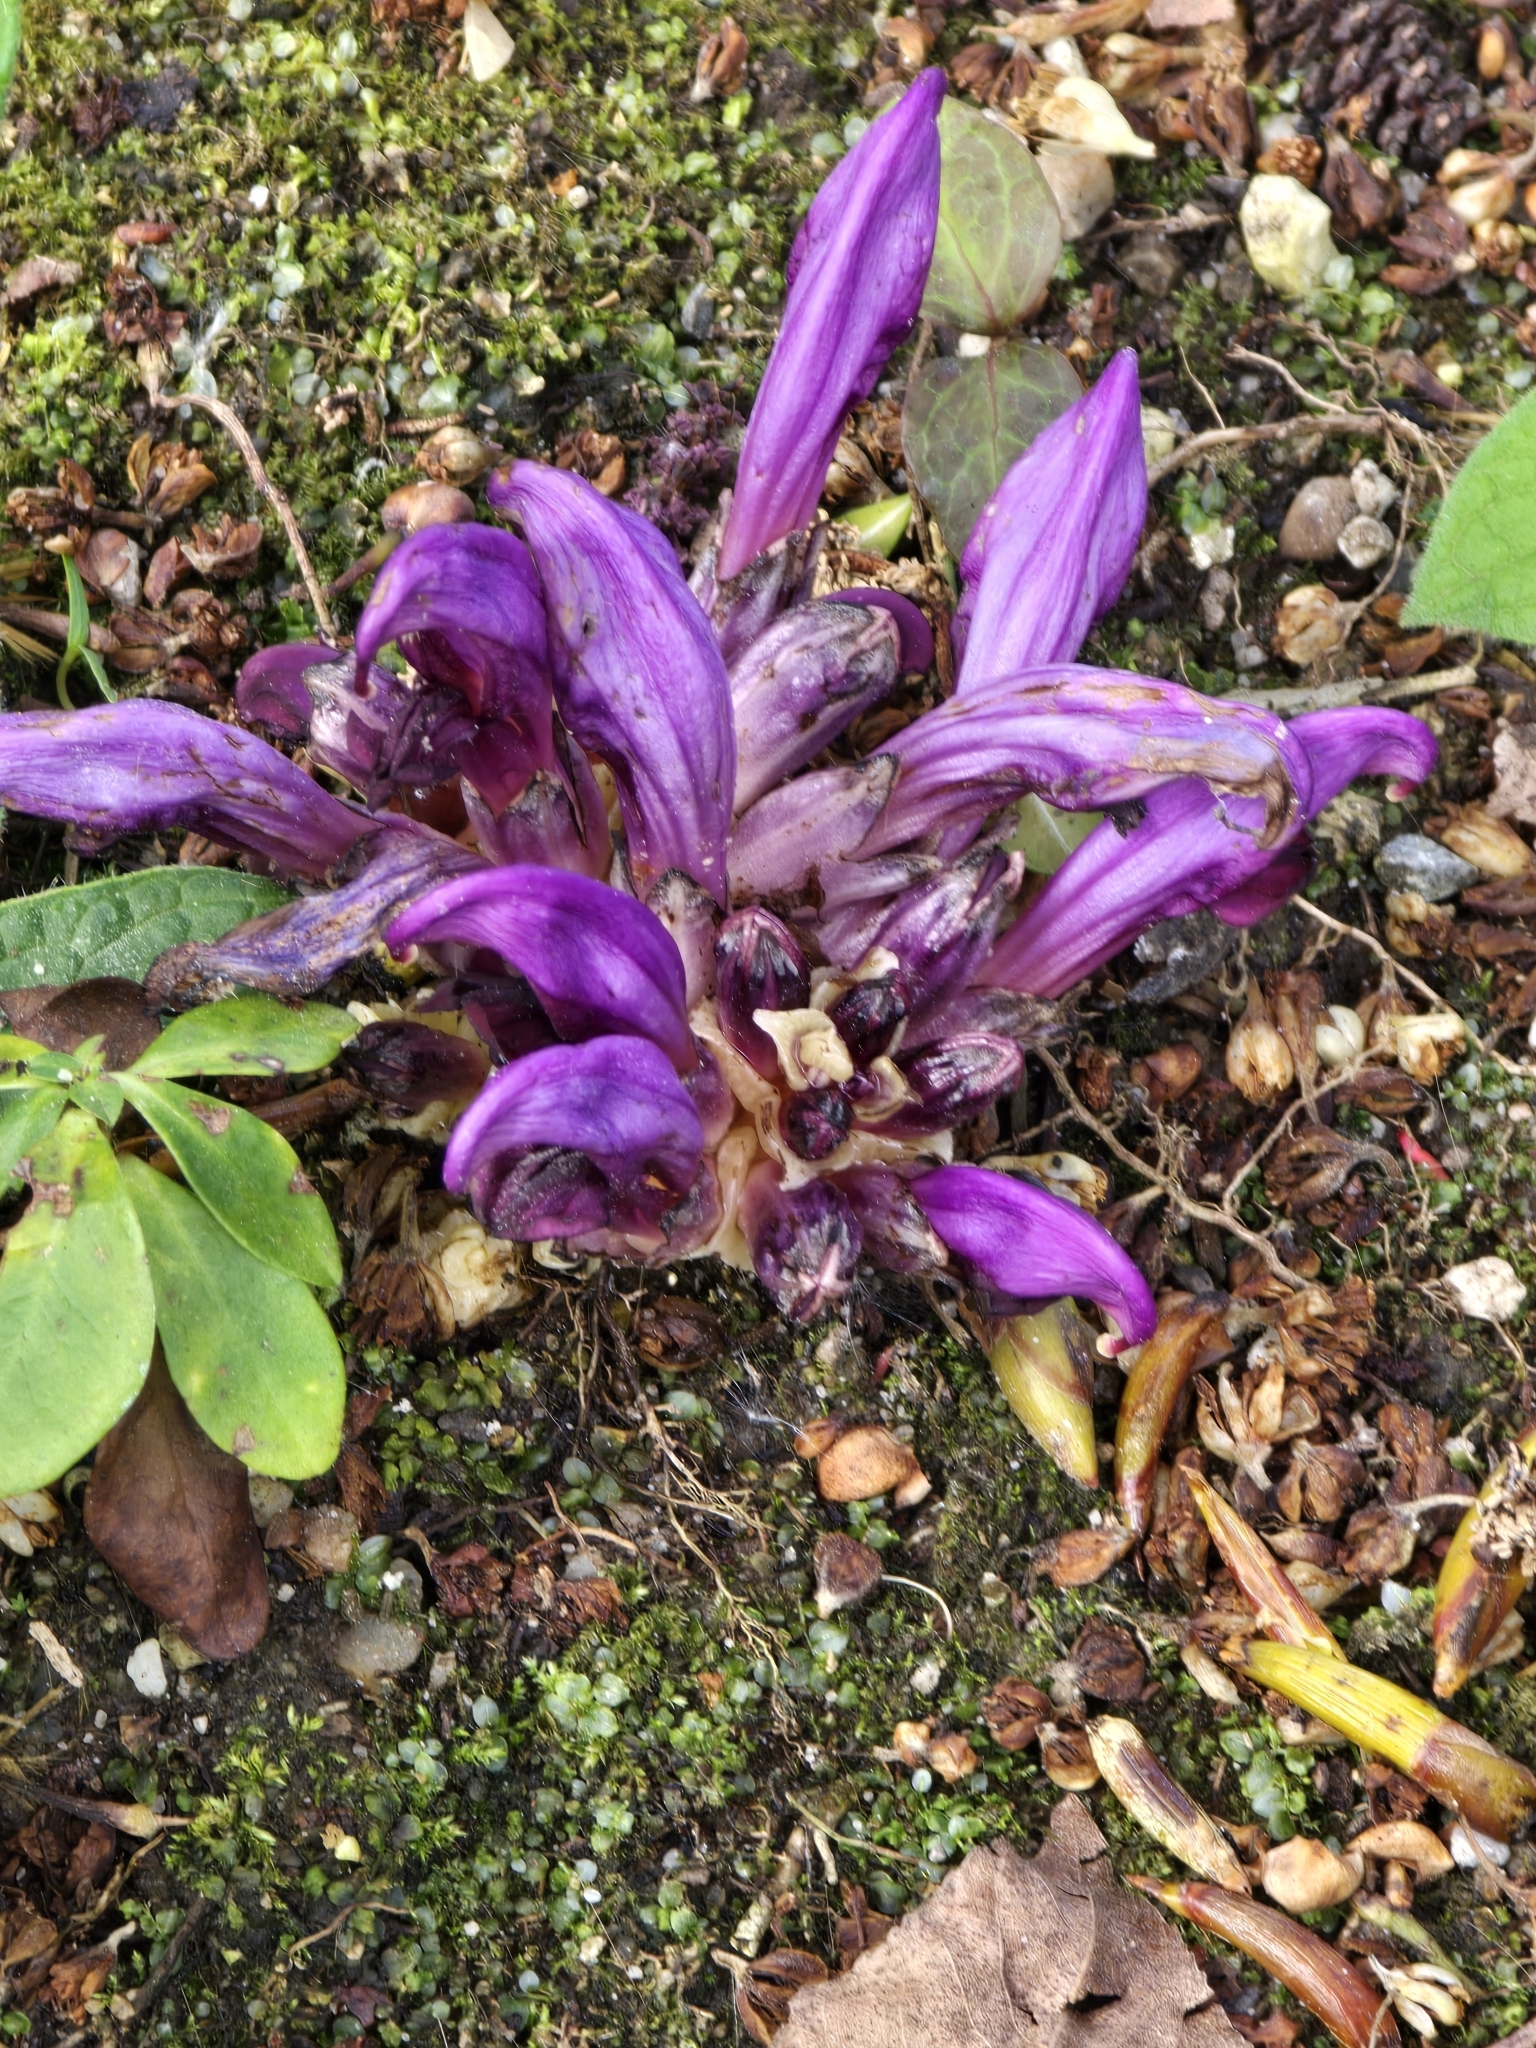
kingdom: Plantae
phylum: Tracheophyta
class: Magnoliopsida
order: Lamiales
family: Orobanchaceae
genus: Lathraea
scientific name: Lathraea clandestina
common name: Purple toothwort
